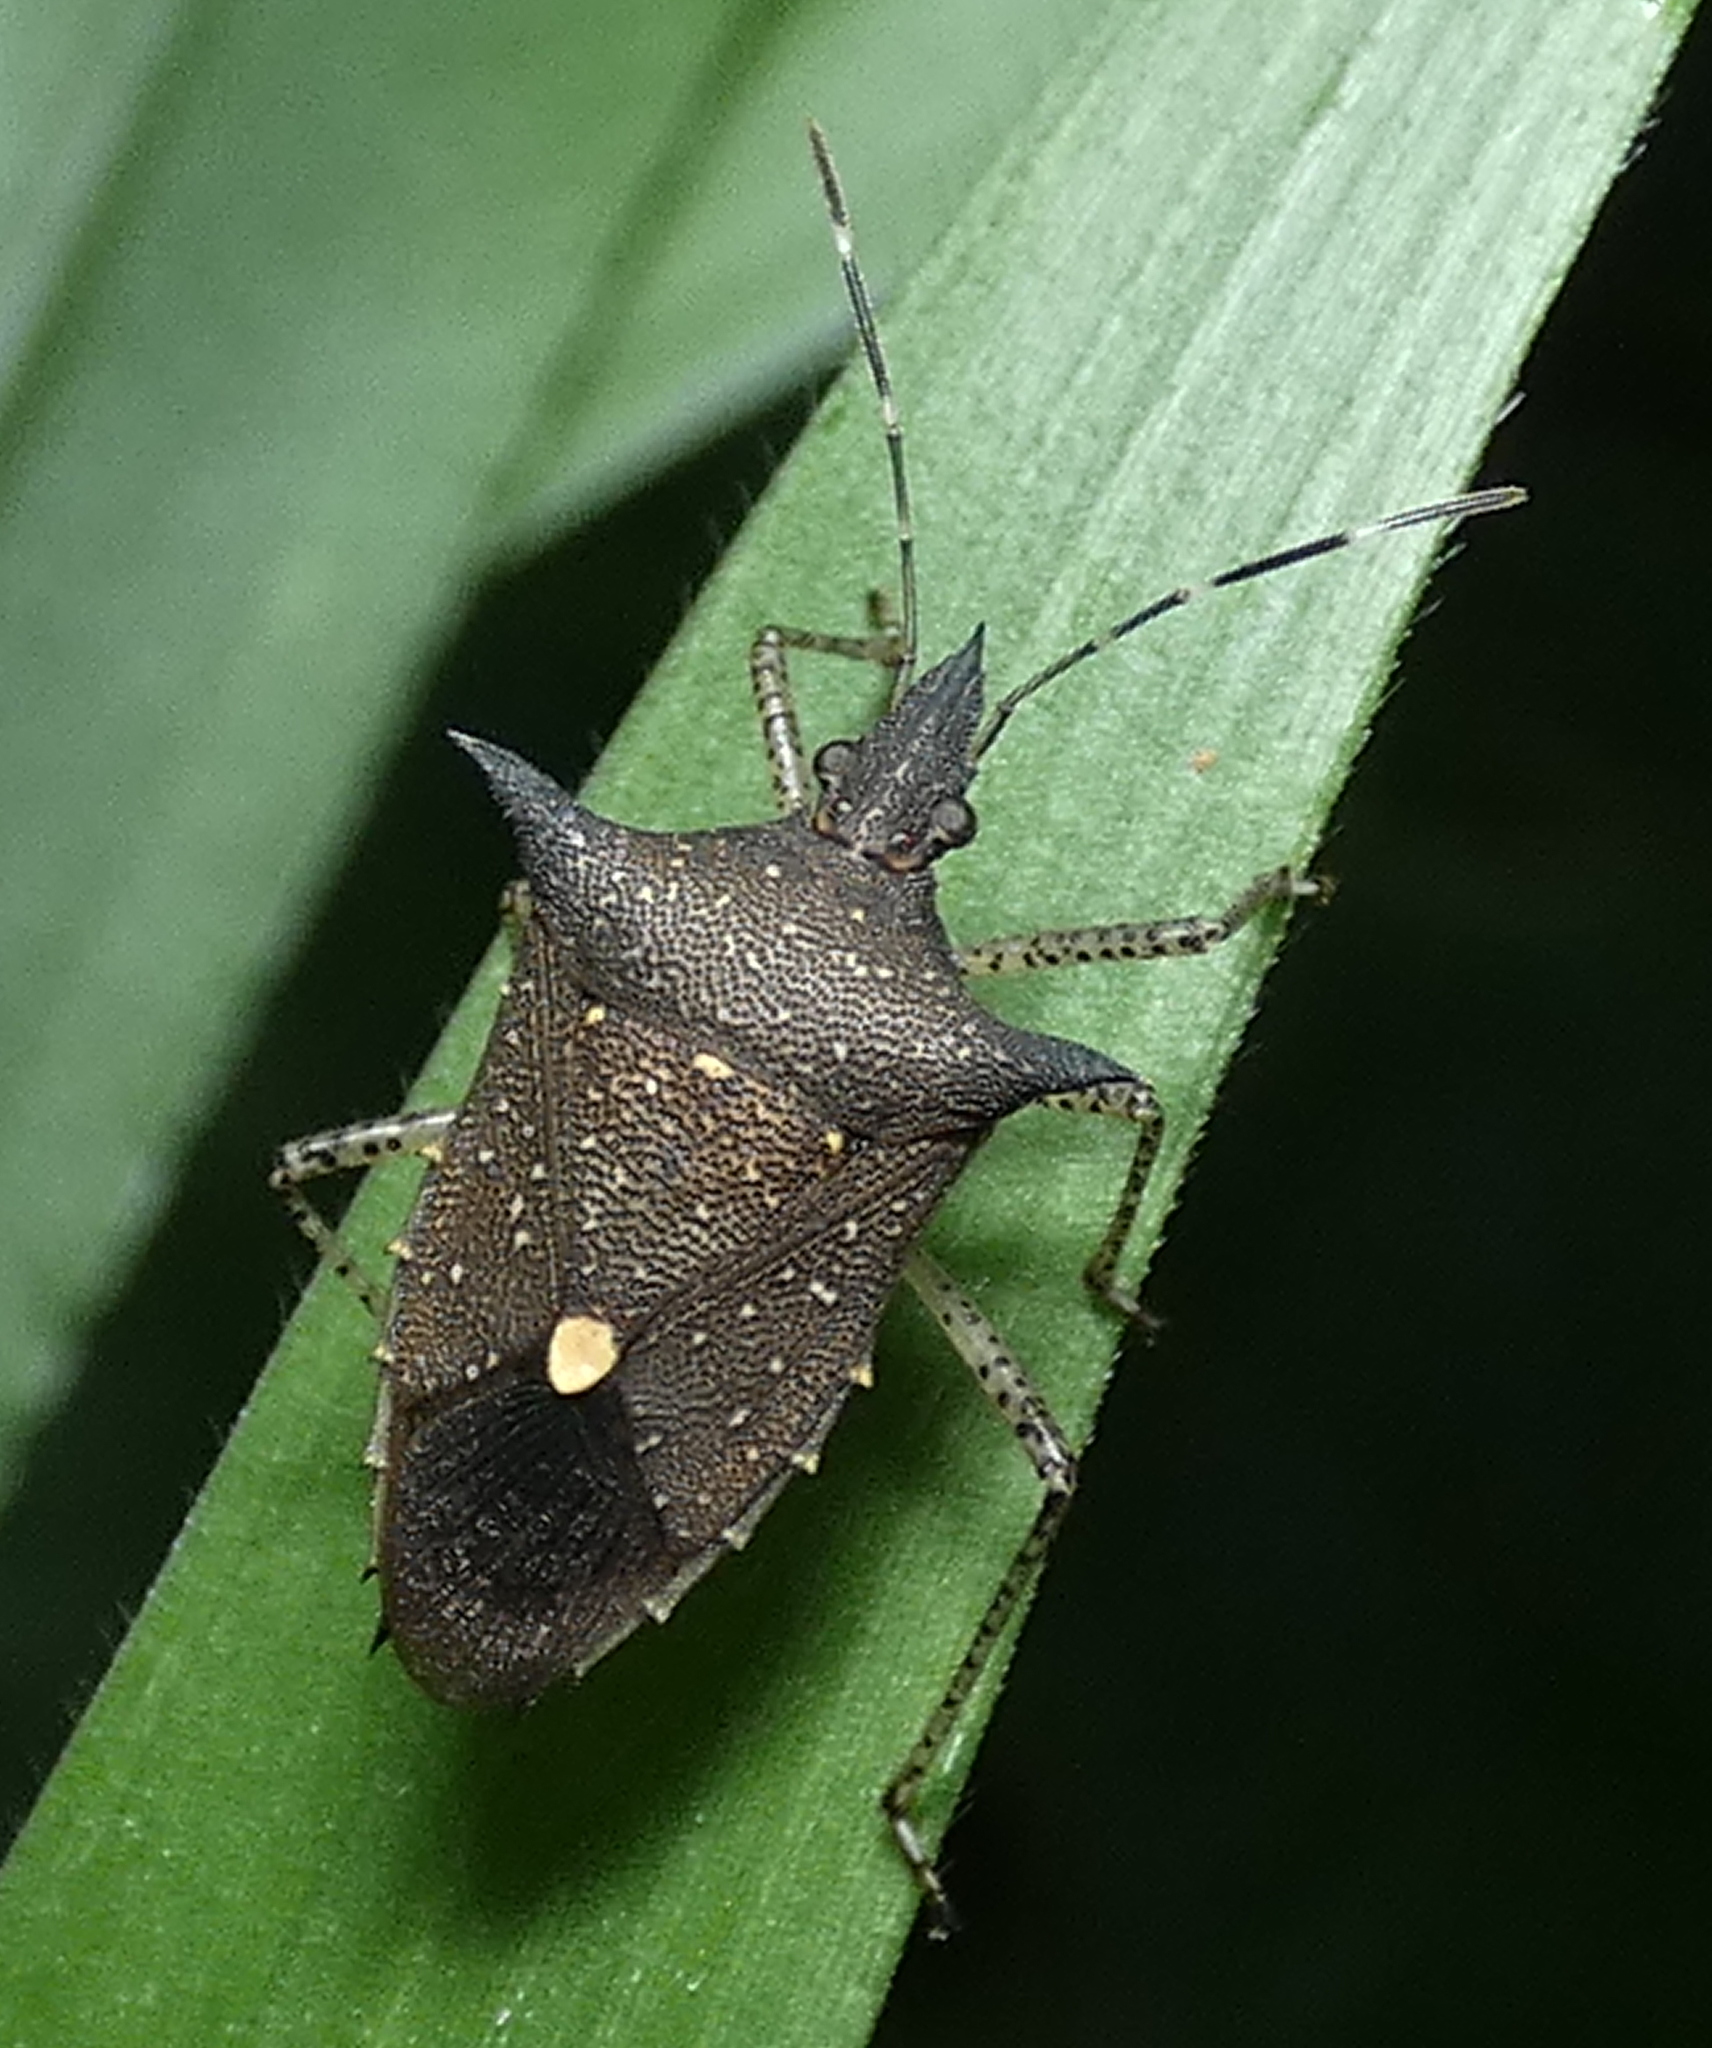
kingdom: Animalia
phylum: Arthropoda
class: Insecta
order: Hemiptera
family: Pentatomidae
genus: Proxys
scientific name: Proxys albopunctulatus
